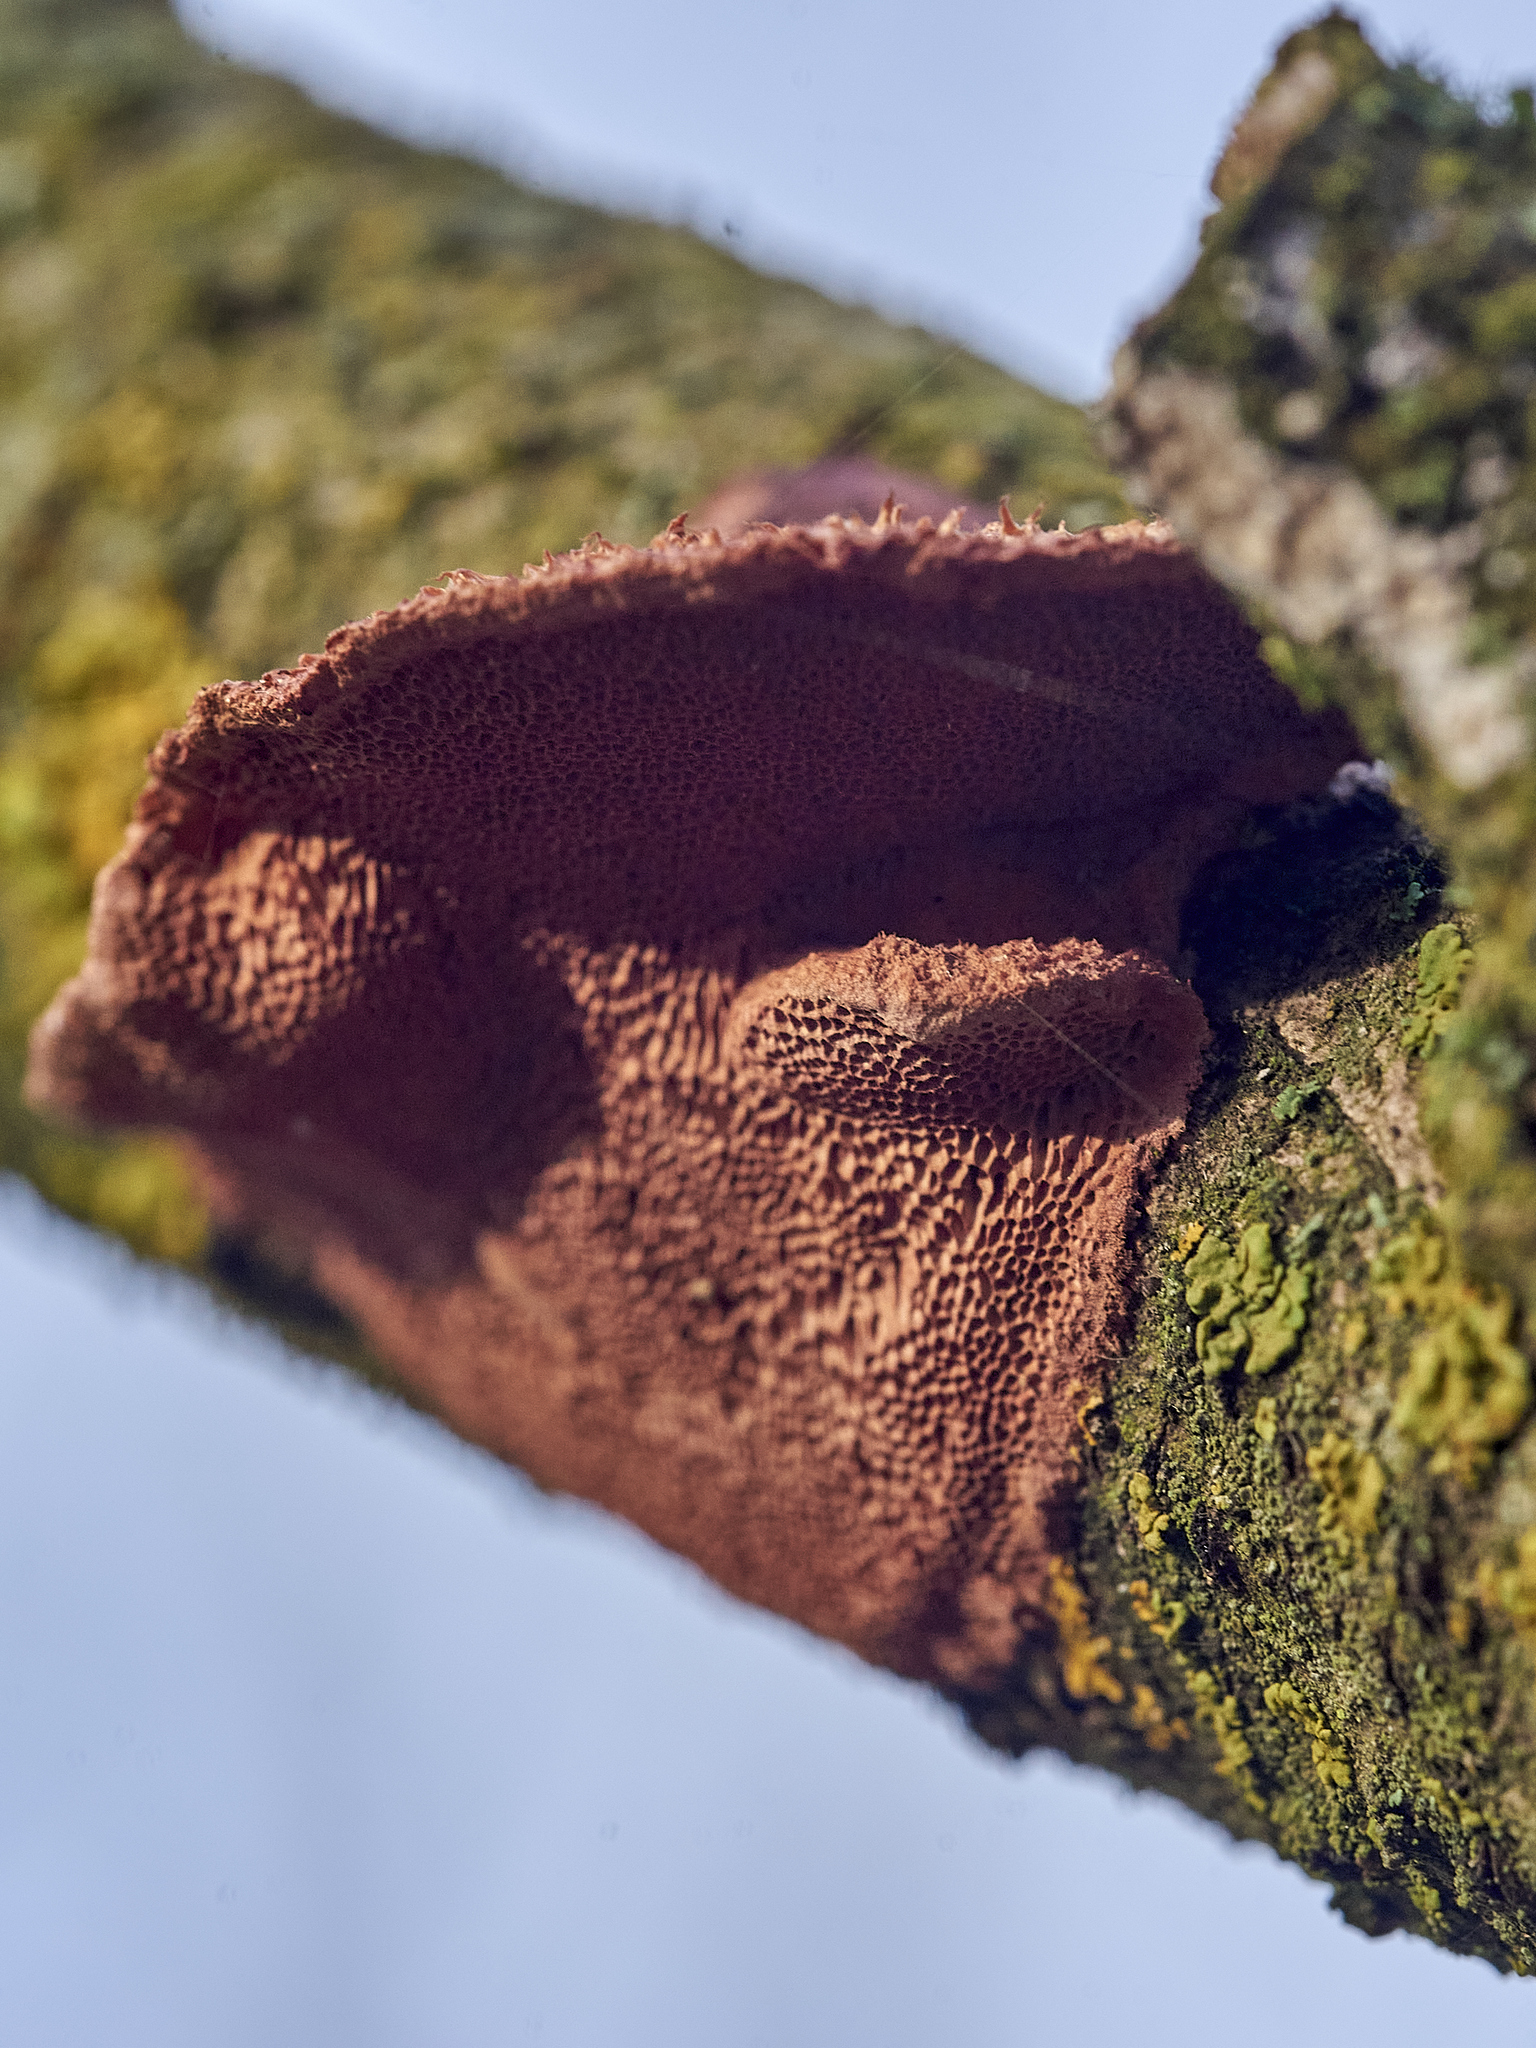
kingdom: Fungi
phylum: Basidiomycota
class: Agaricomycetes
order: Polyporales
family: Phanerochaetaceae
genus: Hapalopilus
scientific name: Hapalopilus rutilans
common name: Tender nesting polypore
